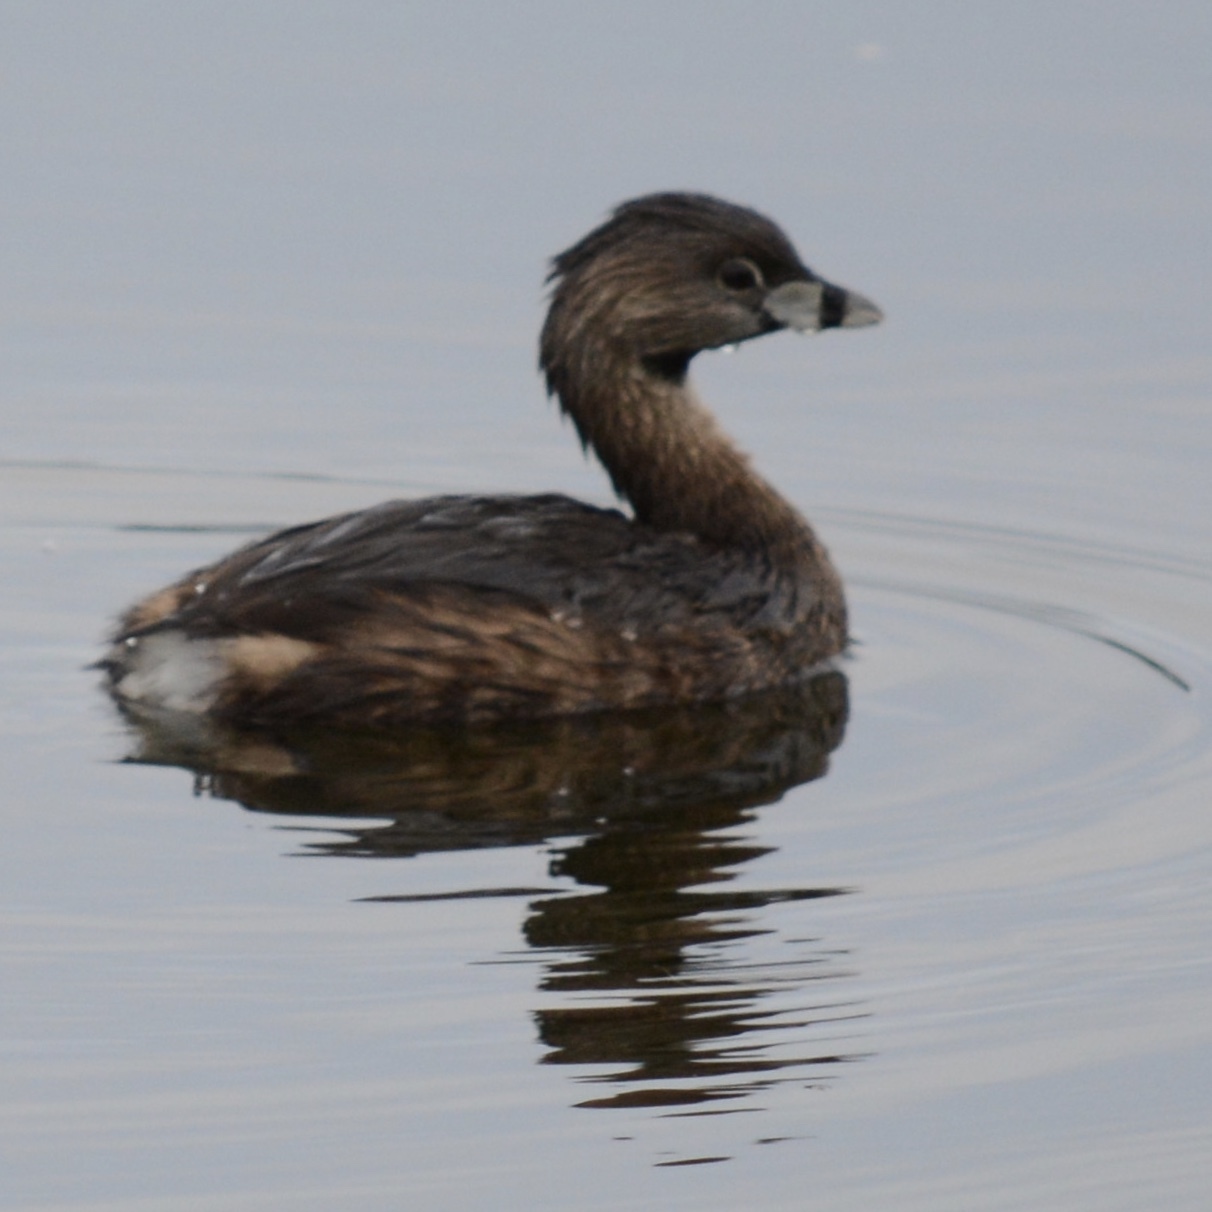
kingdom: Animalia
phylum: Chordata
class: Aves
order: Podicipediformes
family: Podicipedidae
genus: Podilymbus
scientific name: Podilymbus podiceps
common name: Pied-billed grebe
